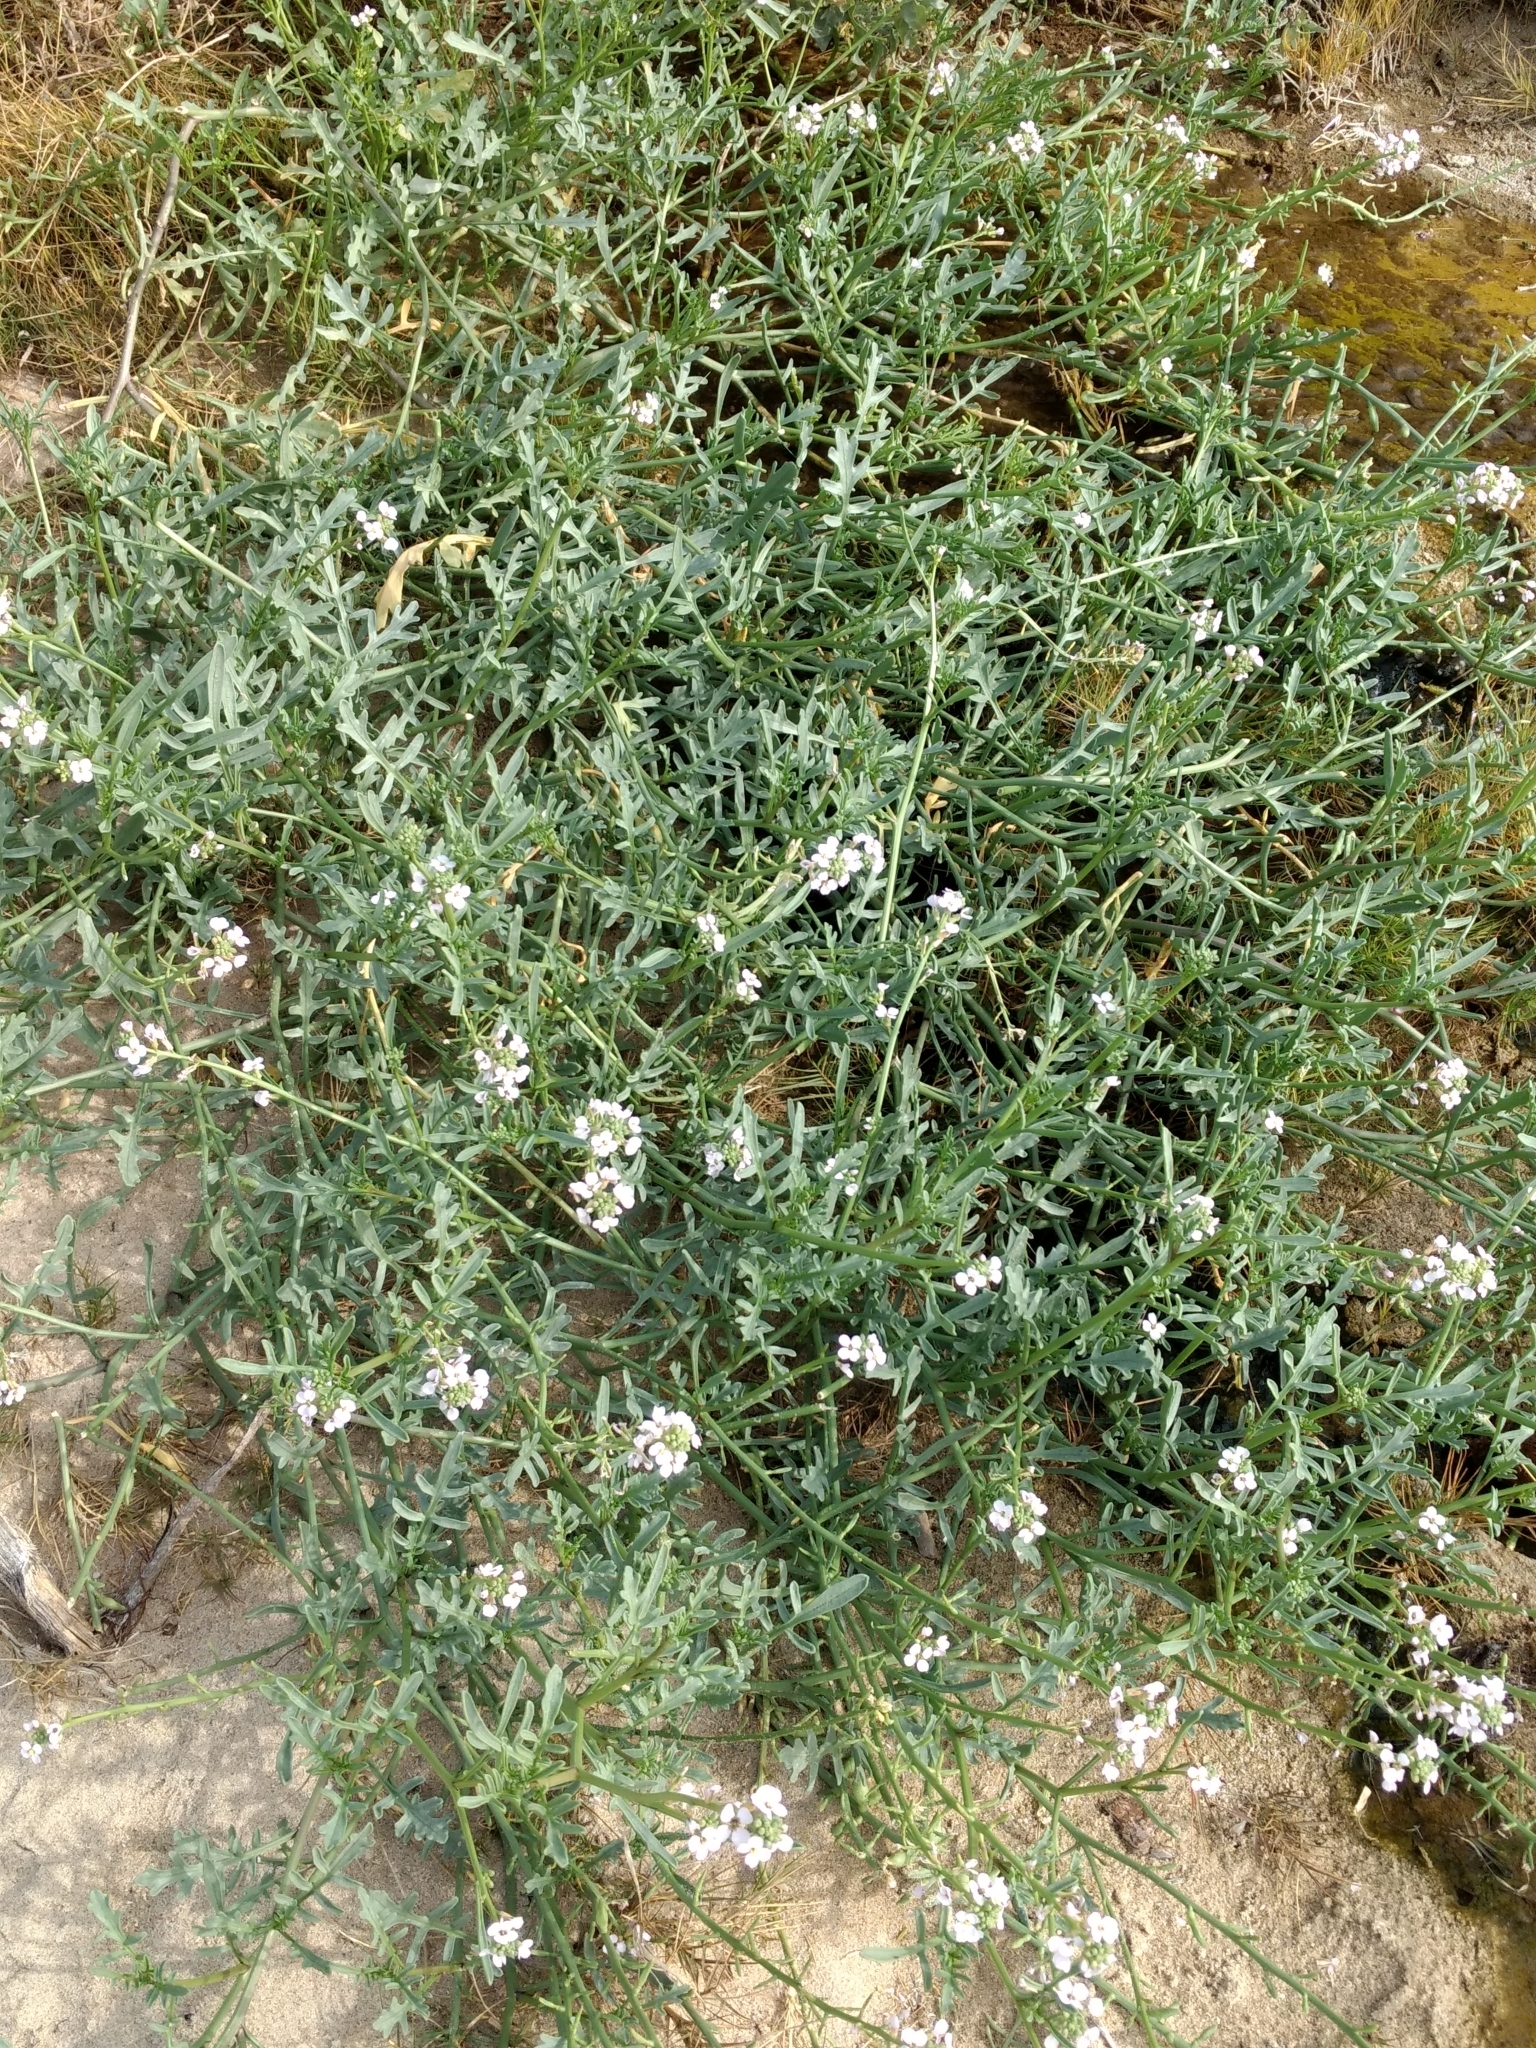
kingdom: Plantae
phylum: Tracheophyta
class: Magnoliopsida
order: Brassicales
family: Brassicaceae
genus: Cakile
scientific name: Cakile maritima
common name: Sea rocket
